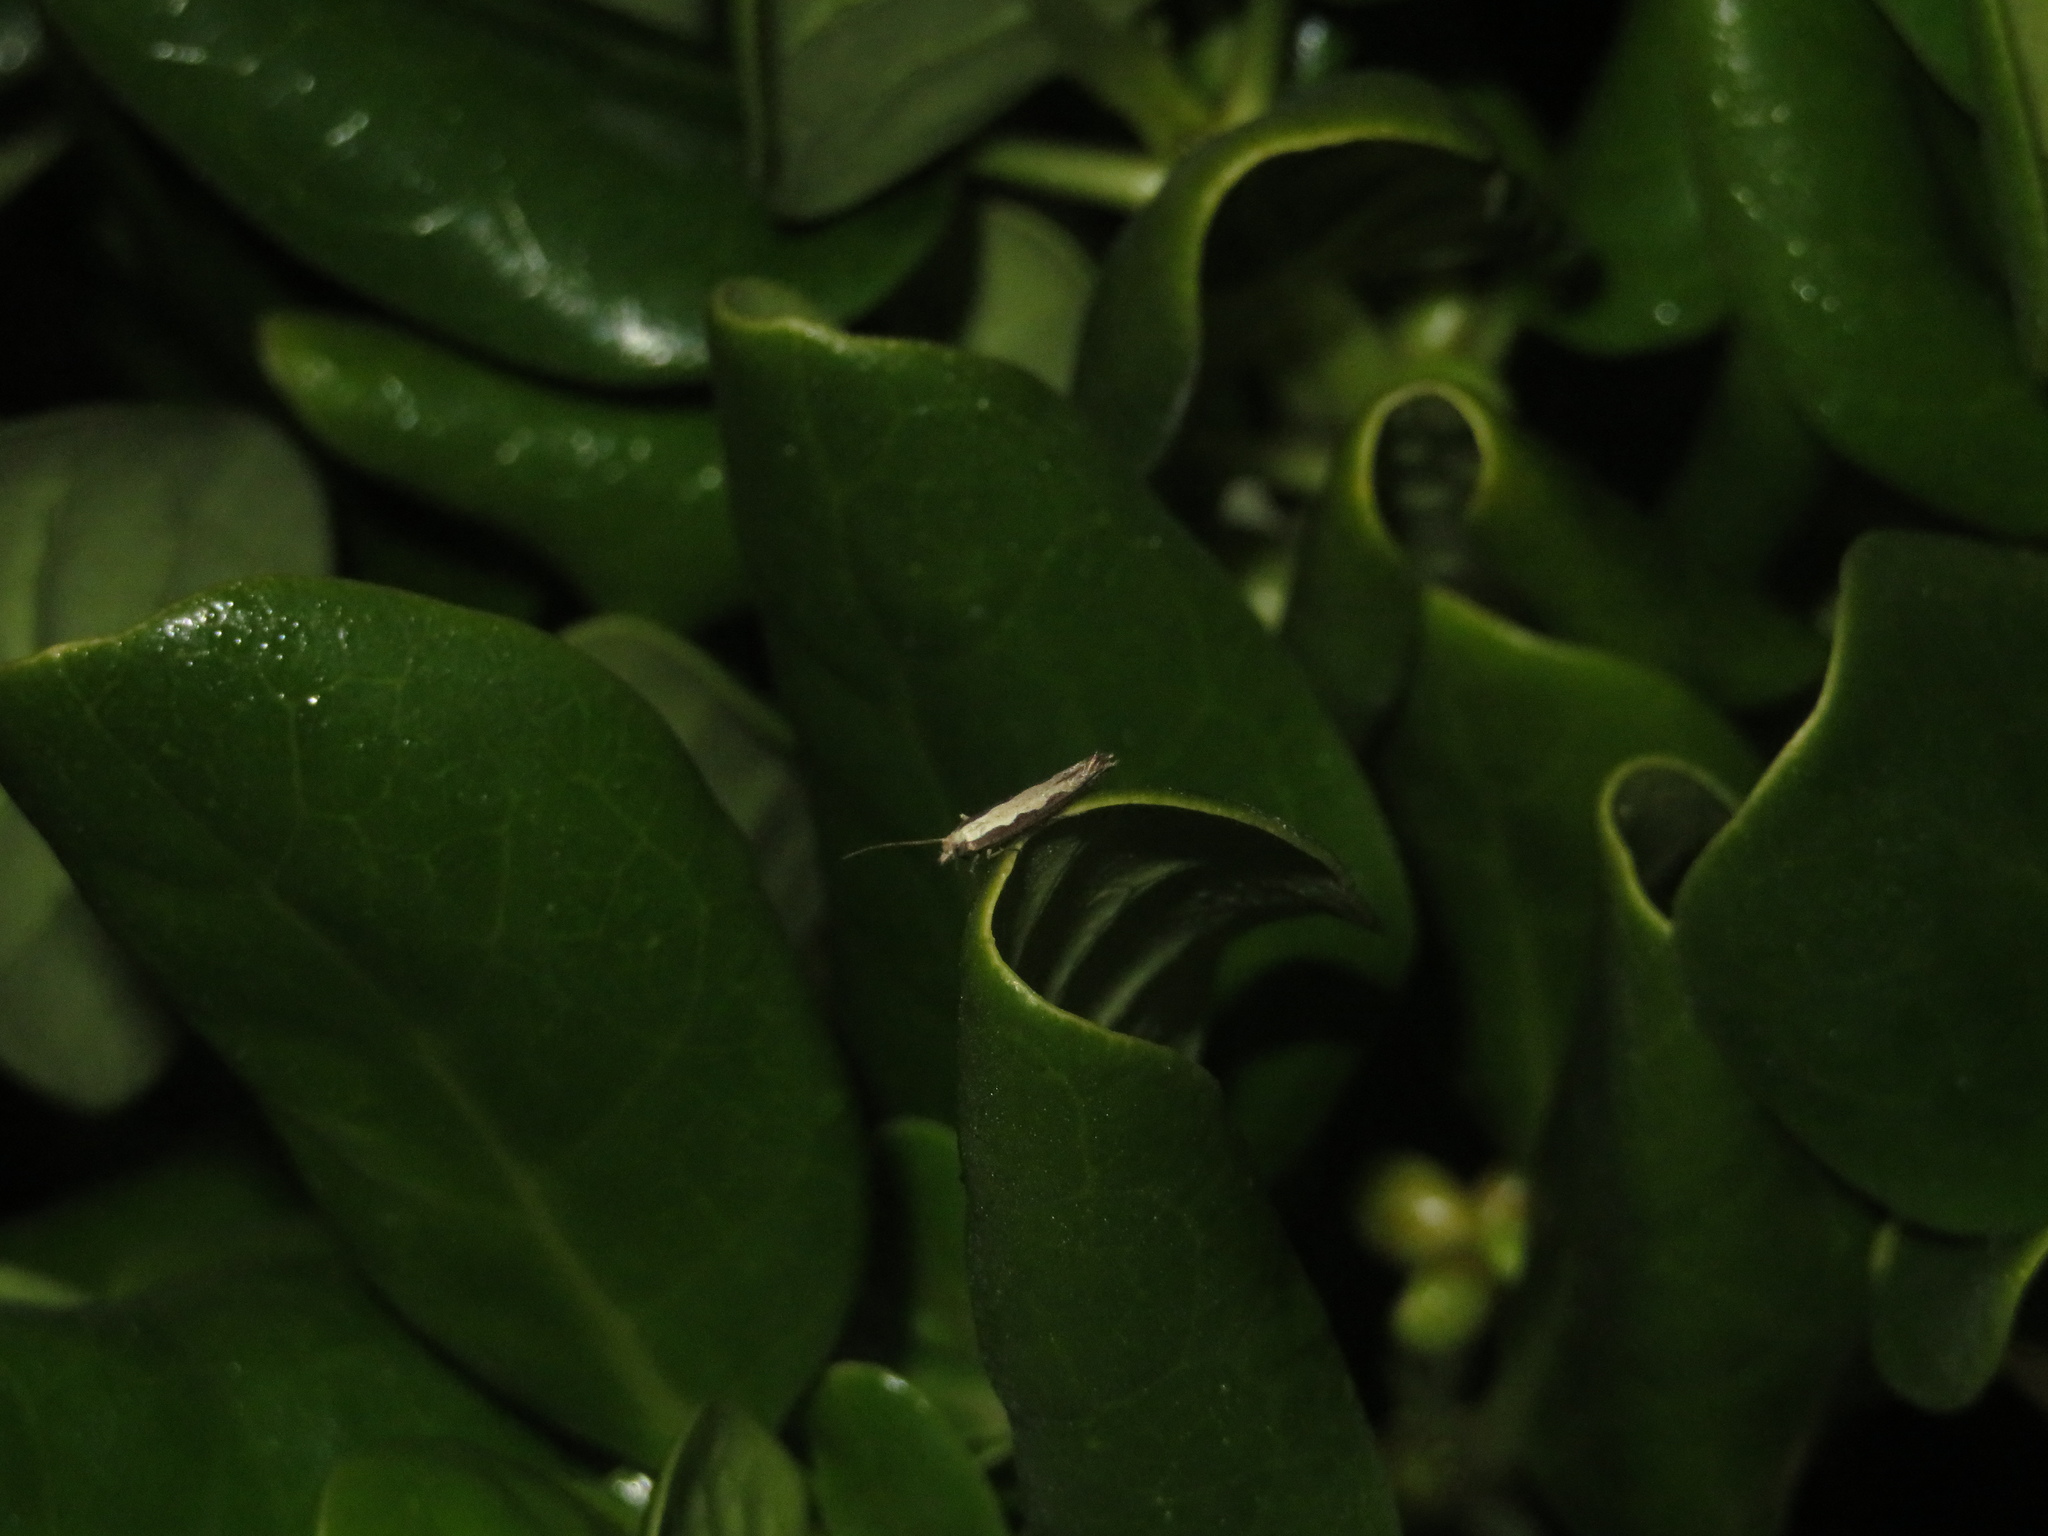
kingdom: Animalia
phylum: Arthropoda
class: Insecta
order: Lepidoptera
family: Plutellidae
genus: Plutella
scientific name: Plutella xylostella
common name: Diamond-back moth
